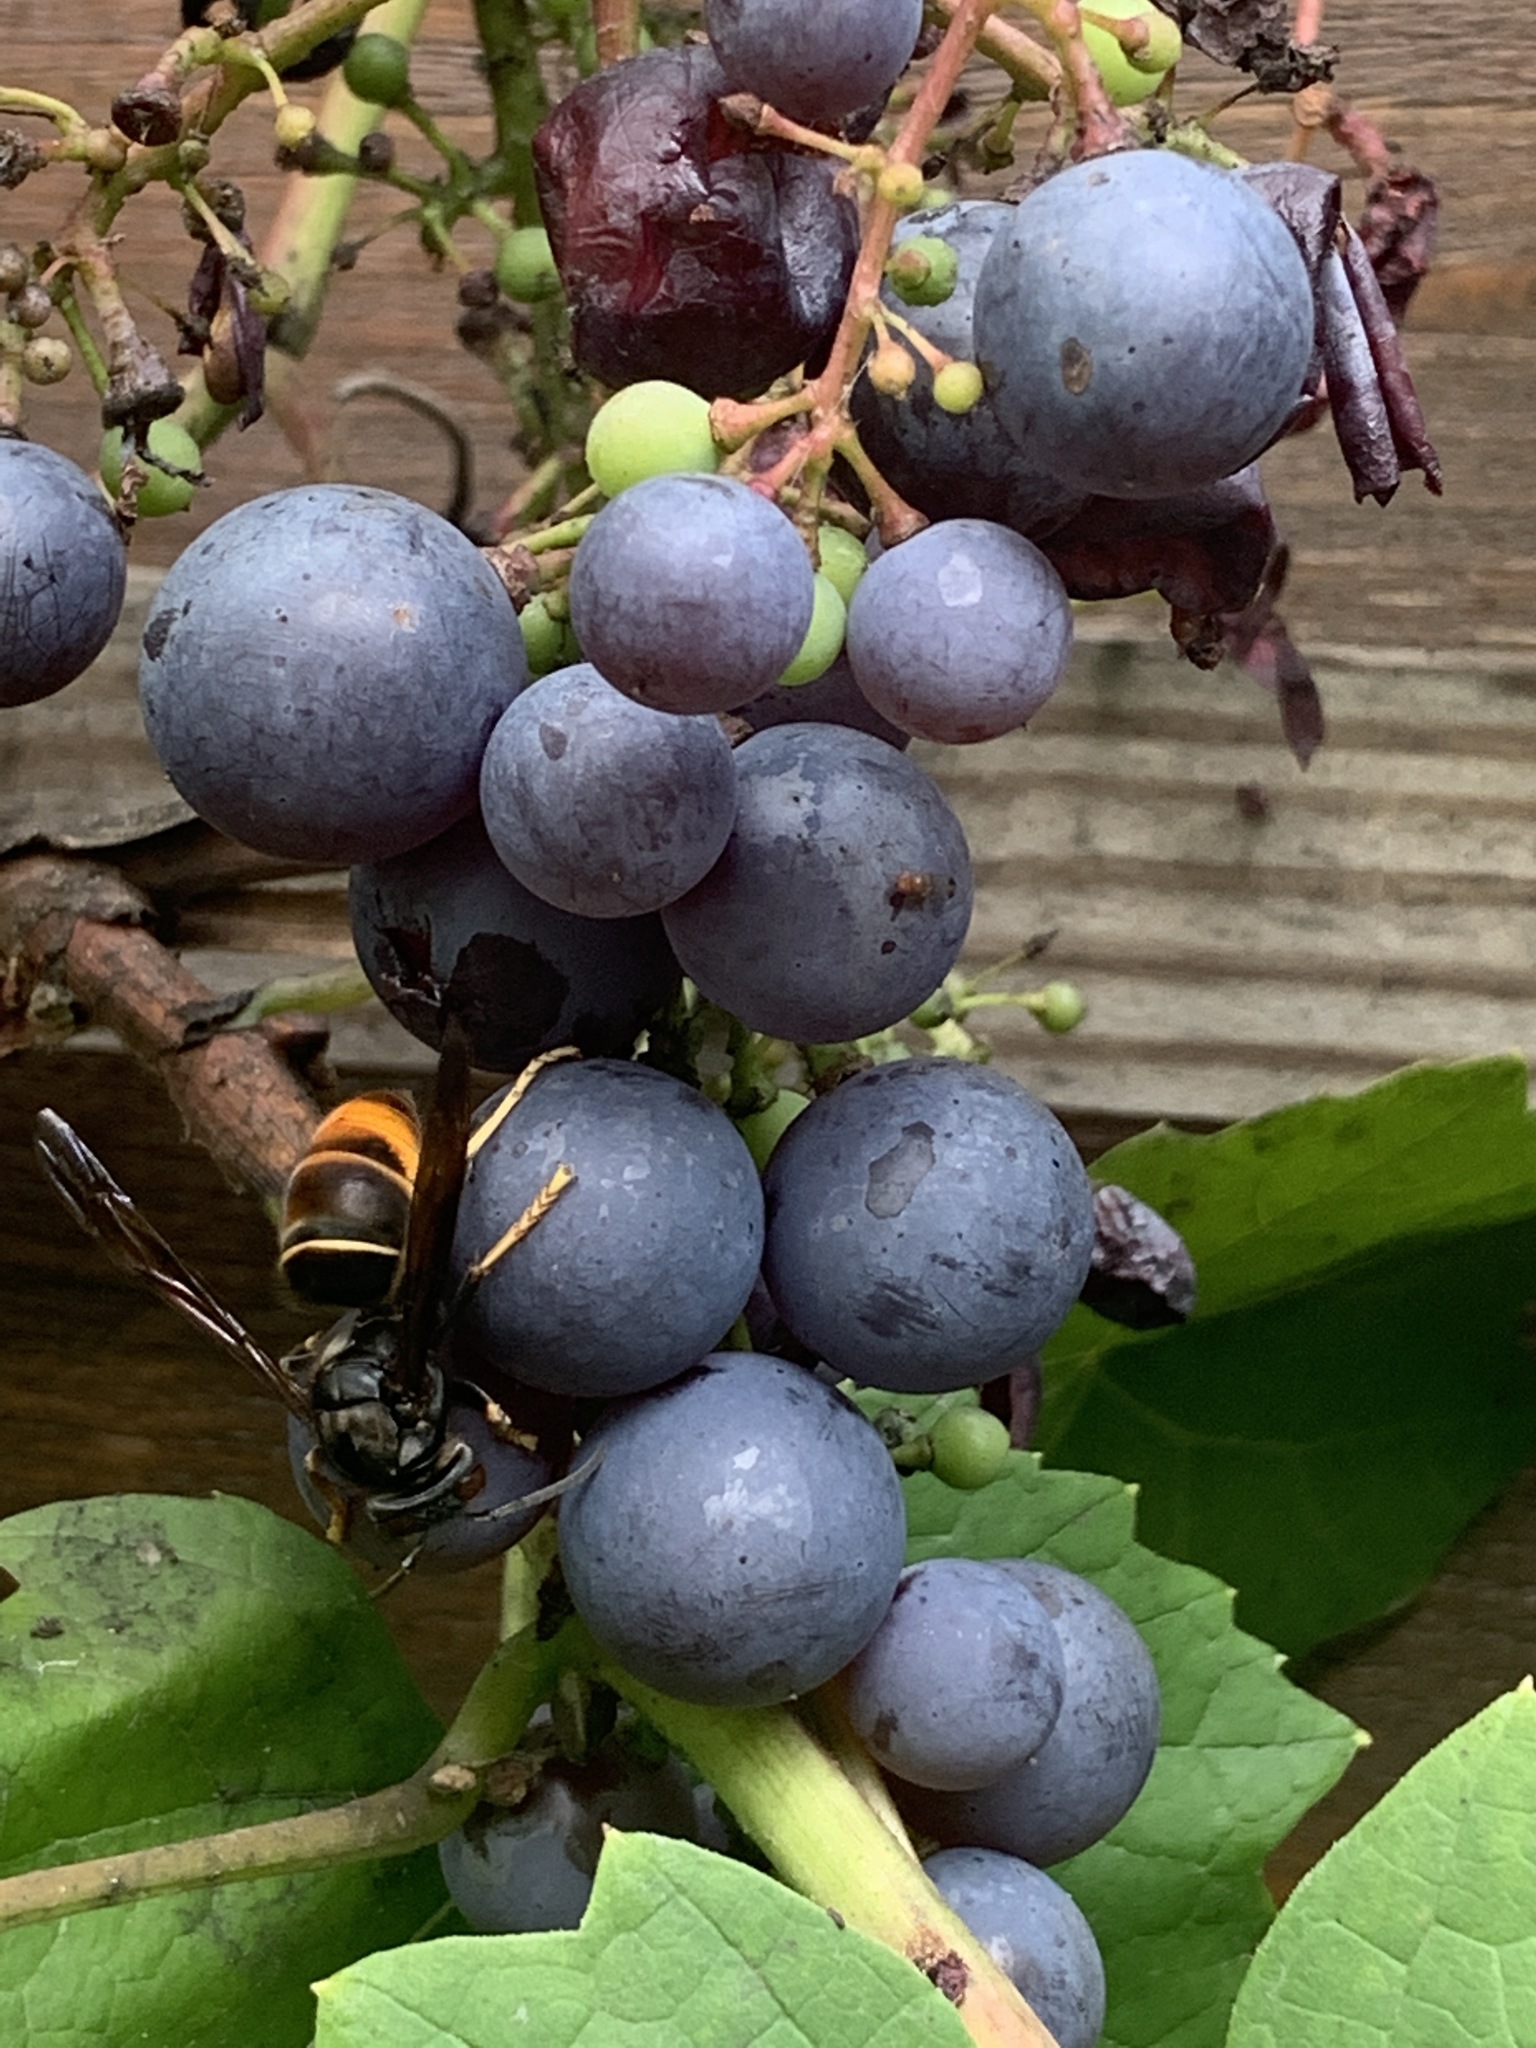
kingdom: Animalia
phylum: Arthropoda
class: Insecta
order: Hymenoptera
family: Vespidae
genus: Vespa
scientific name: Vespa velutina
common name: Asian hornet
